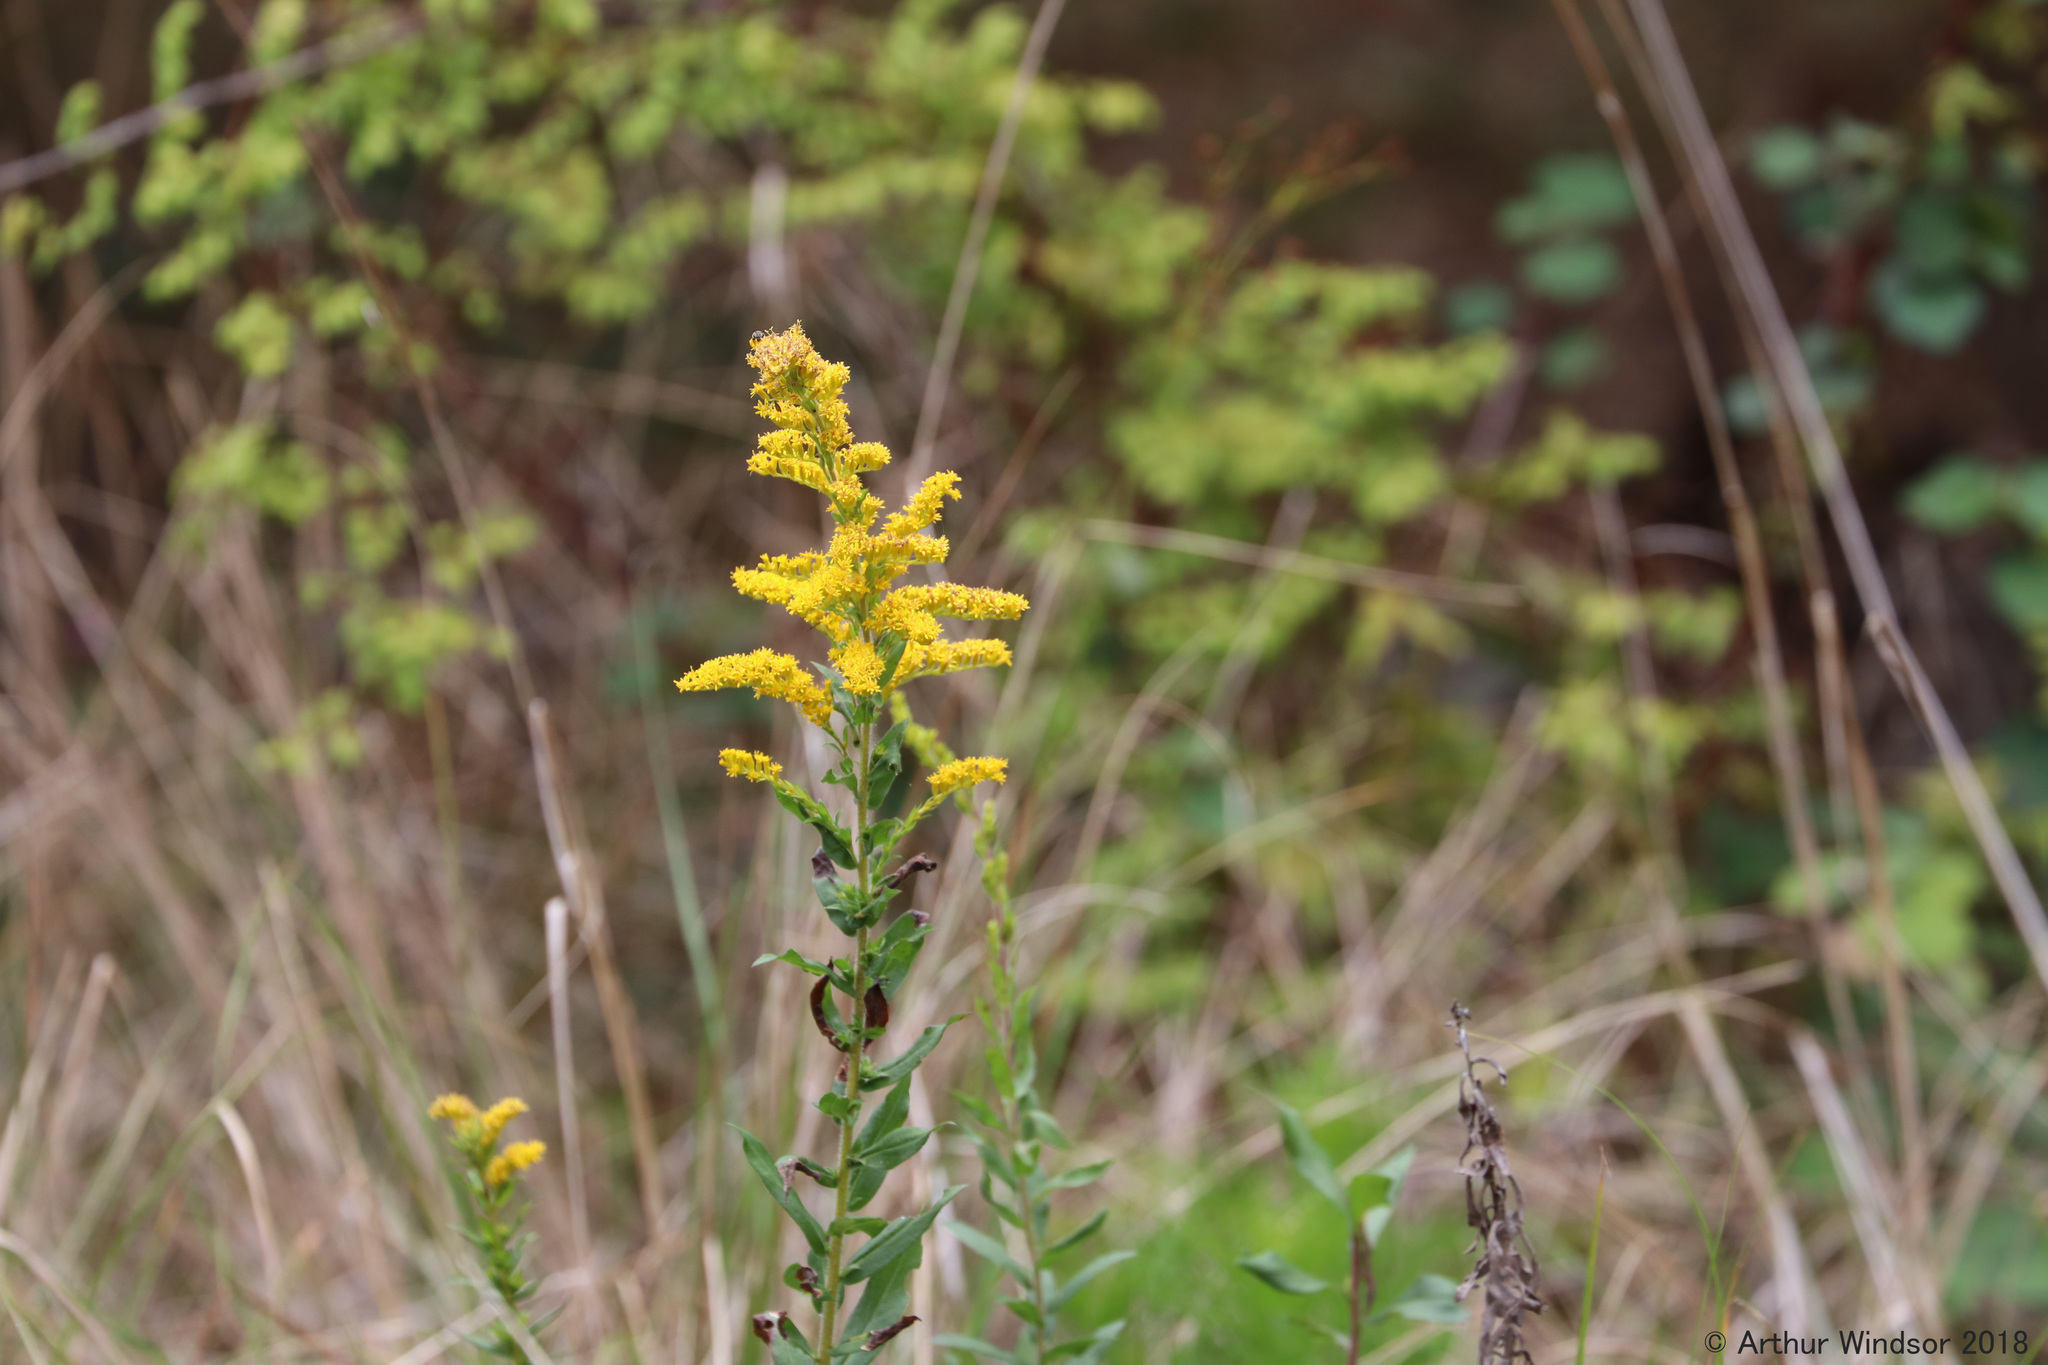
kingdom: Plantae
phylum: Tracheophyta
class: Magnoliopsida
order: Asterales
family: Asteraceae
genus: Solidago
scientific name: Solidago fistulosa
